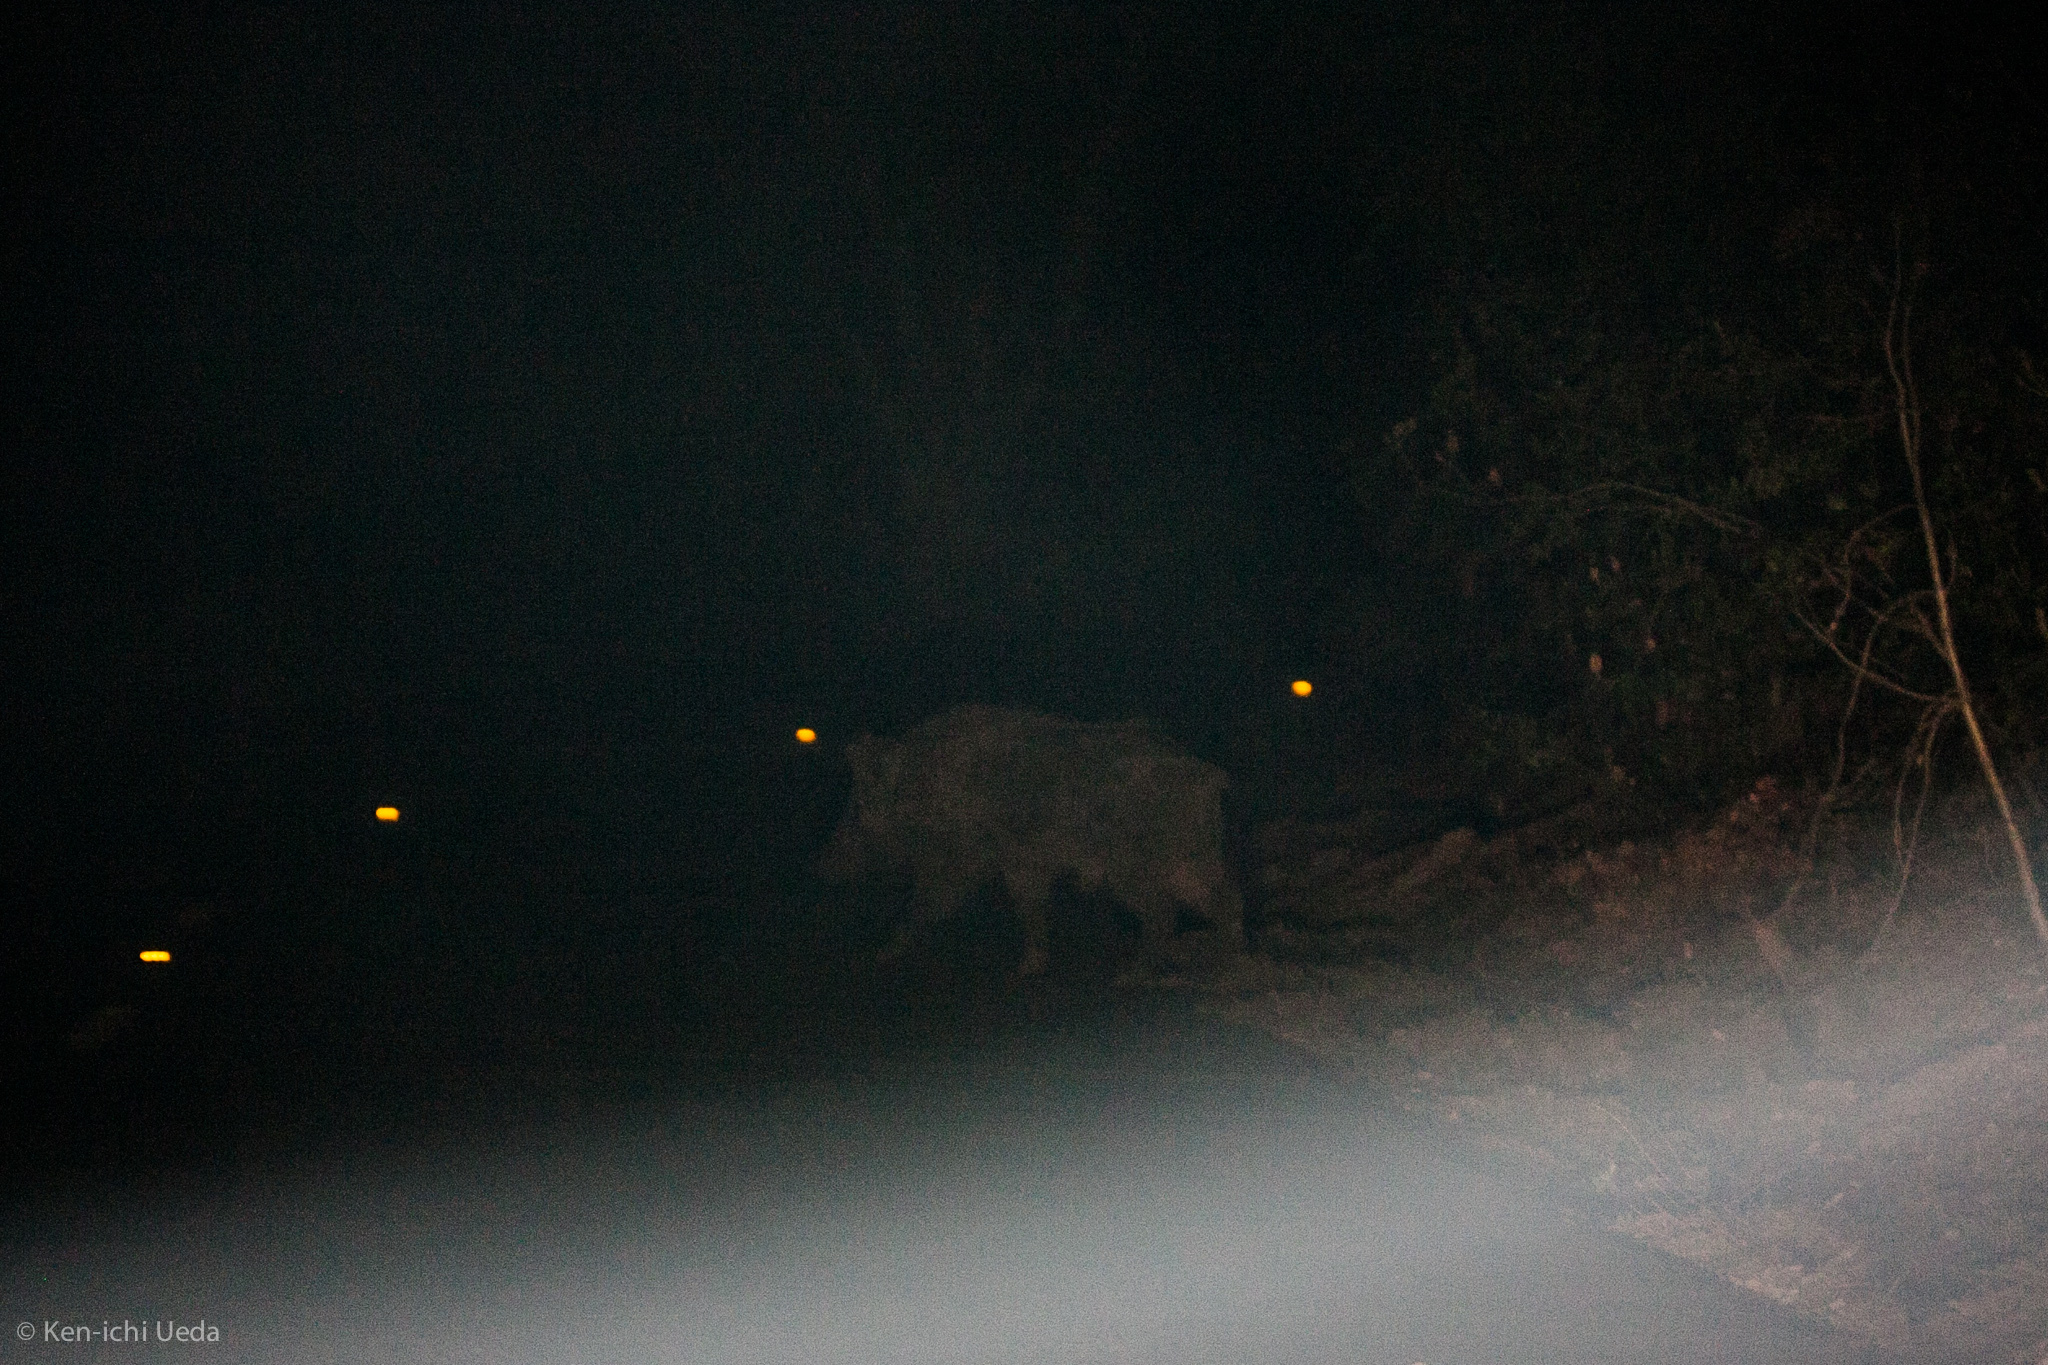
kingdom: Animalia
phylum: Chordata
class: Mammalia
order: Artiodactyla
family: Suidae
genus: Sus
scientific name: Sus scrofa
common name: Wild boar
